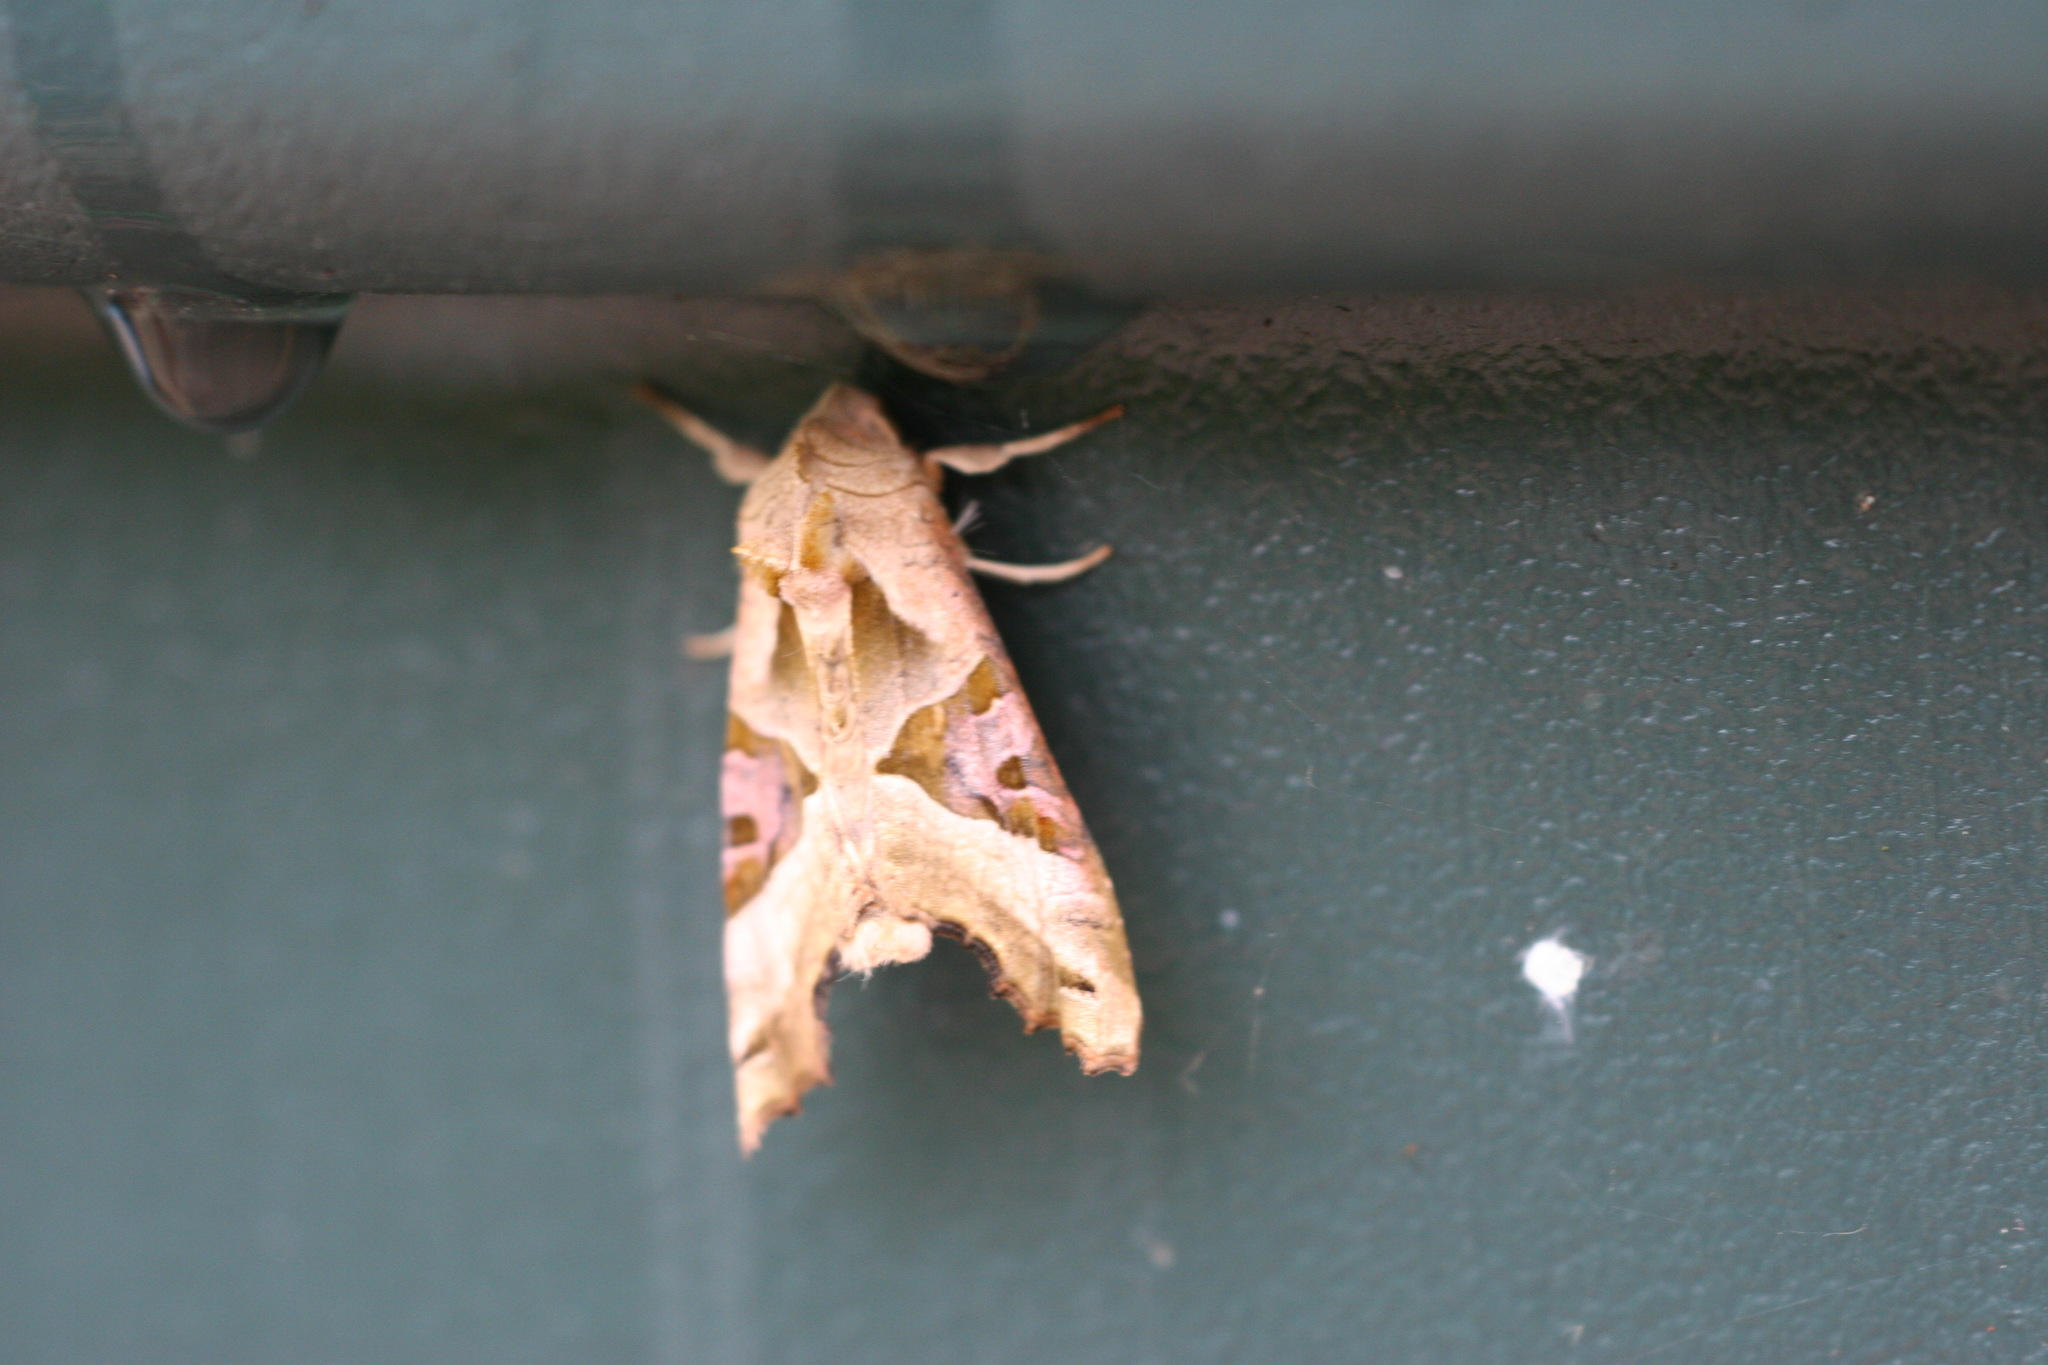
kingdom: Animalia
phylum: Arthropoda
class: Insecta
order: Lepidoptera
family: Noctuidae
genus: Phlogophora
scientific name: Phlogophora meticulosa
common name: Angle shades
